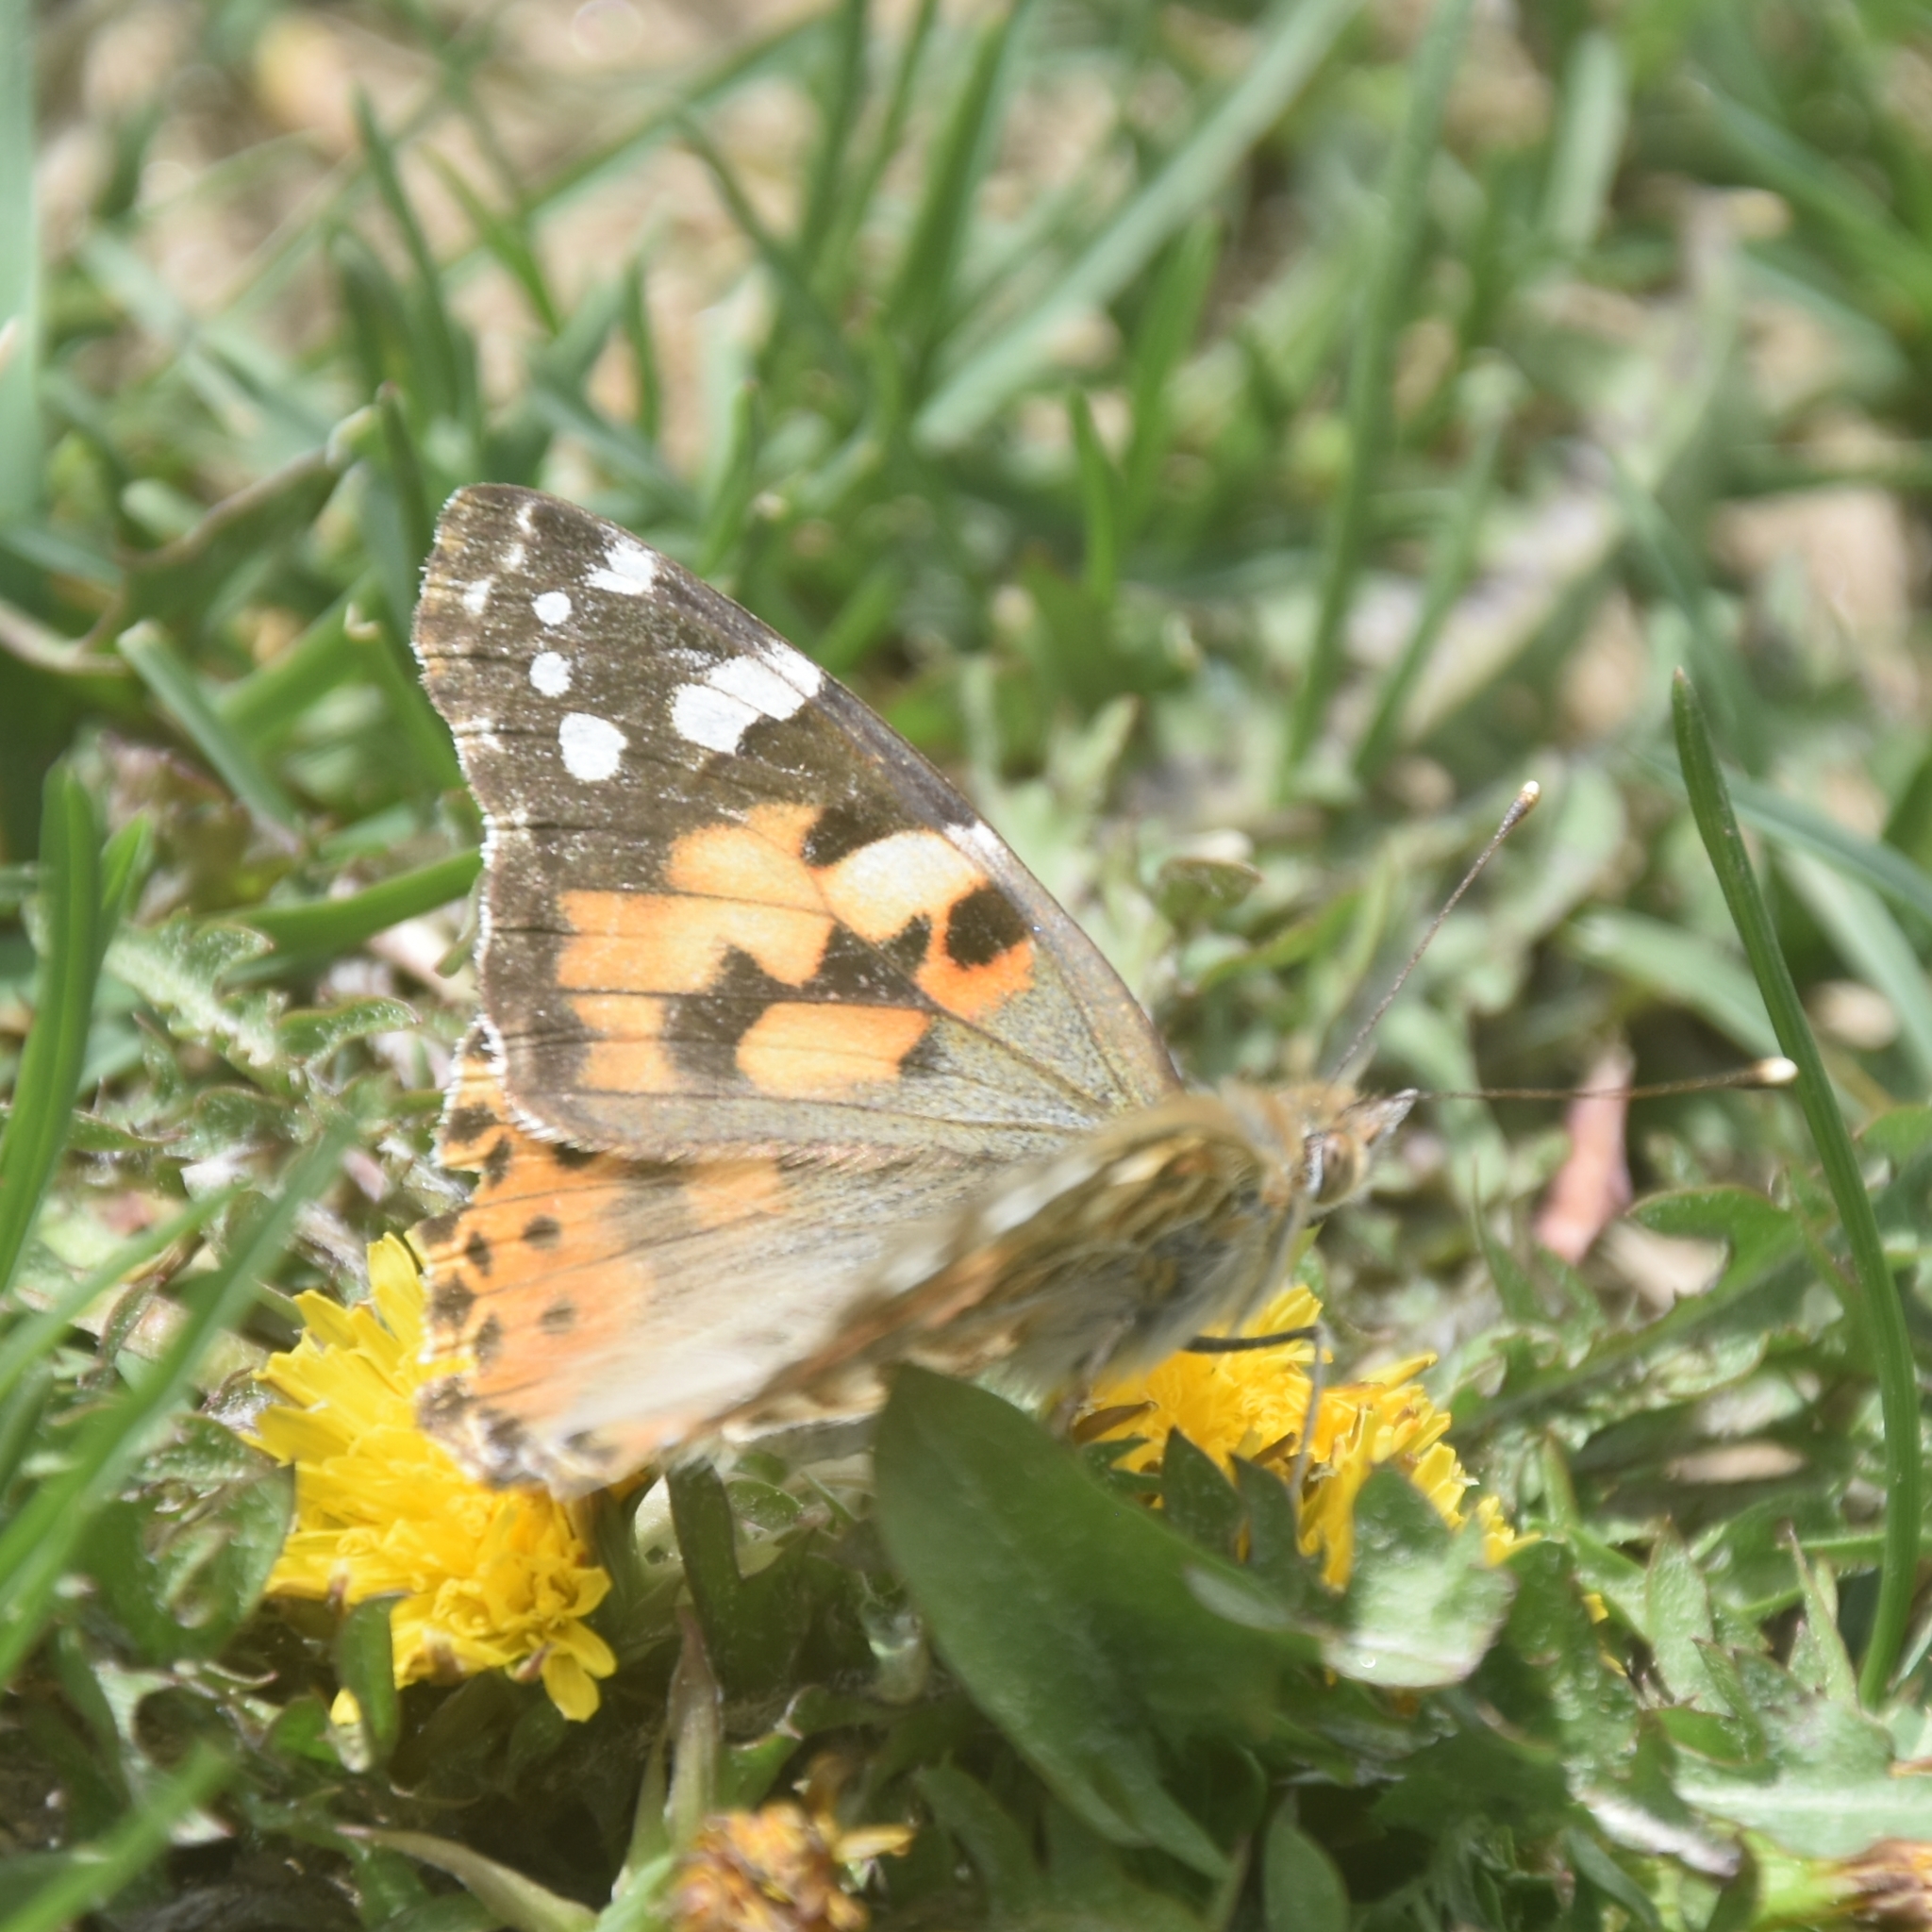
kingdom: Animalia
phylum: Arthropoda
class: Insecta
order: Lepidoptera
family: Nymphalidae
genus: Vanessa
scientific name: Vanessa cardui
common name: Painted lady
